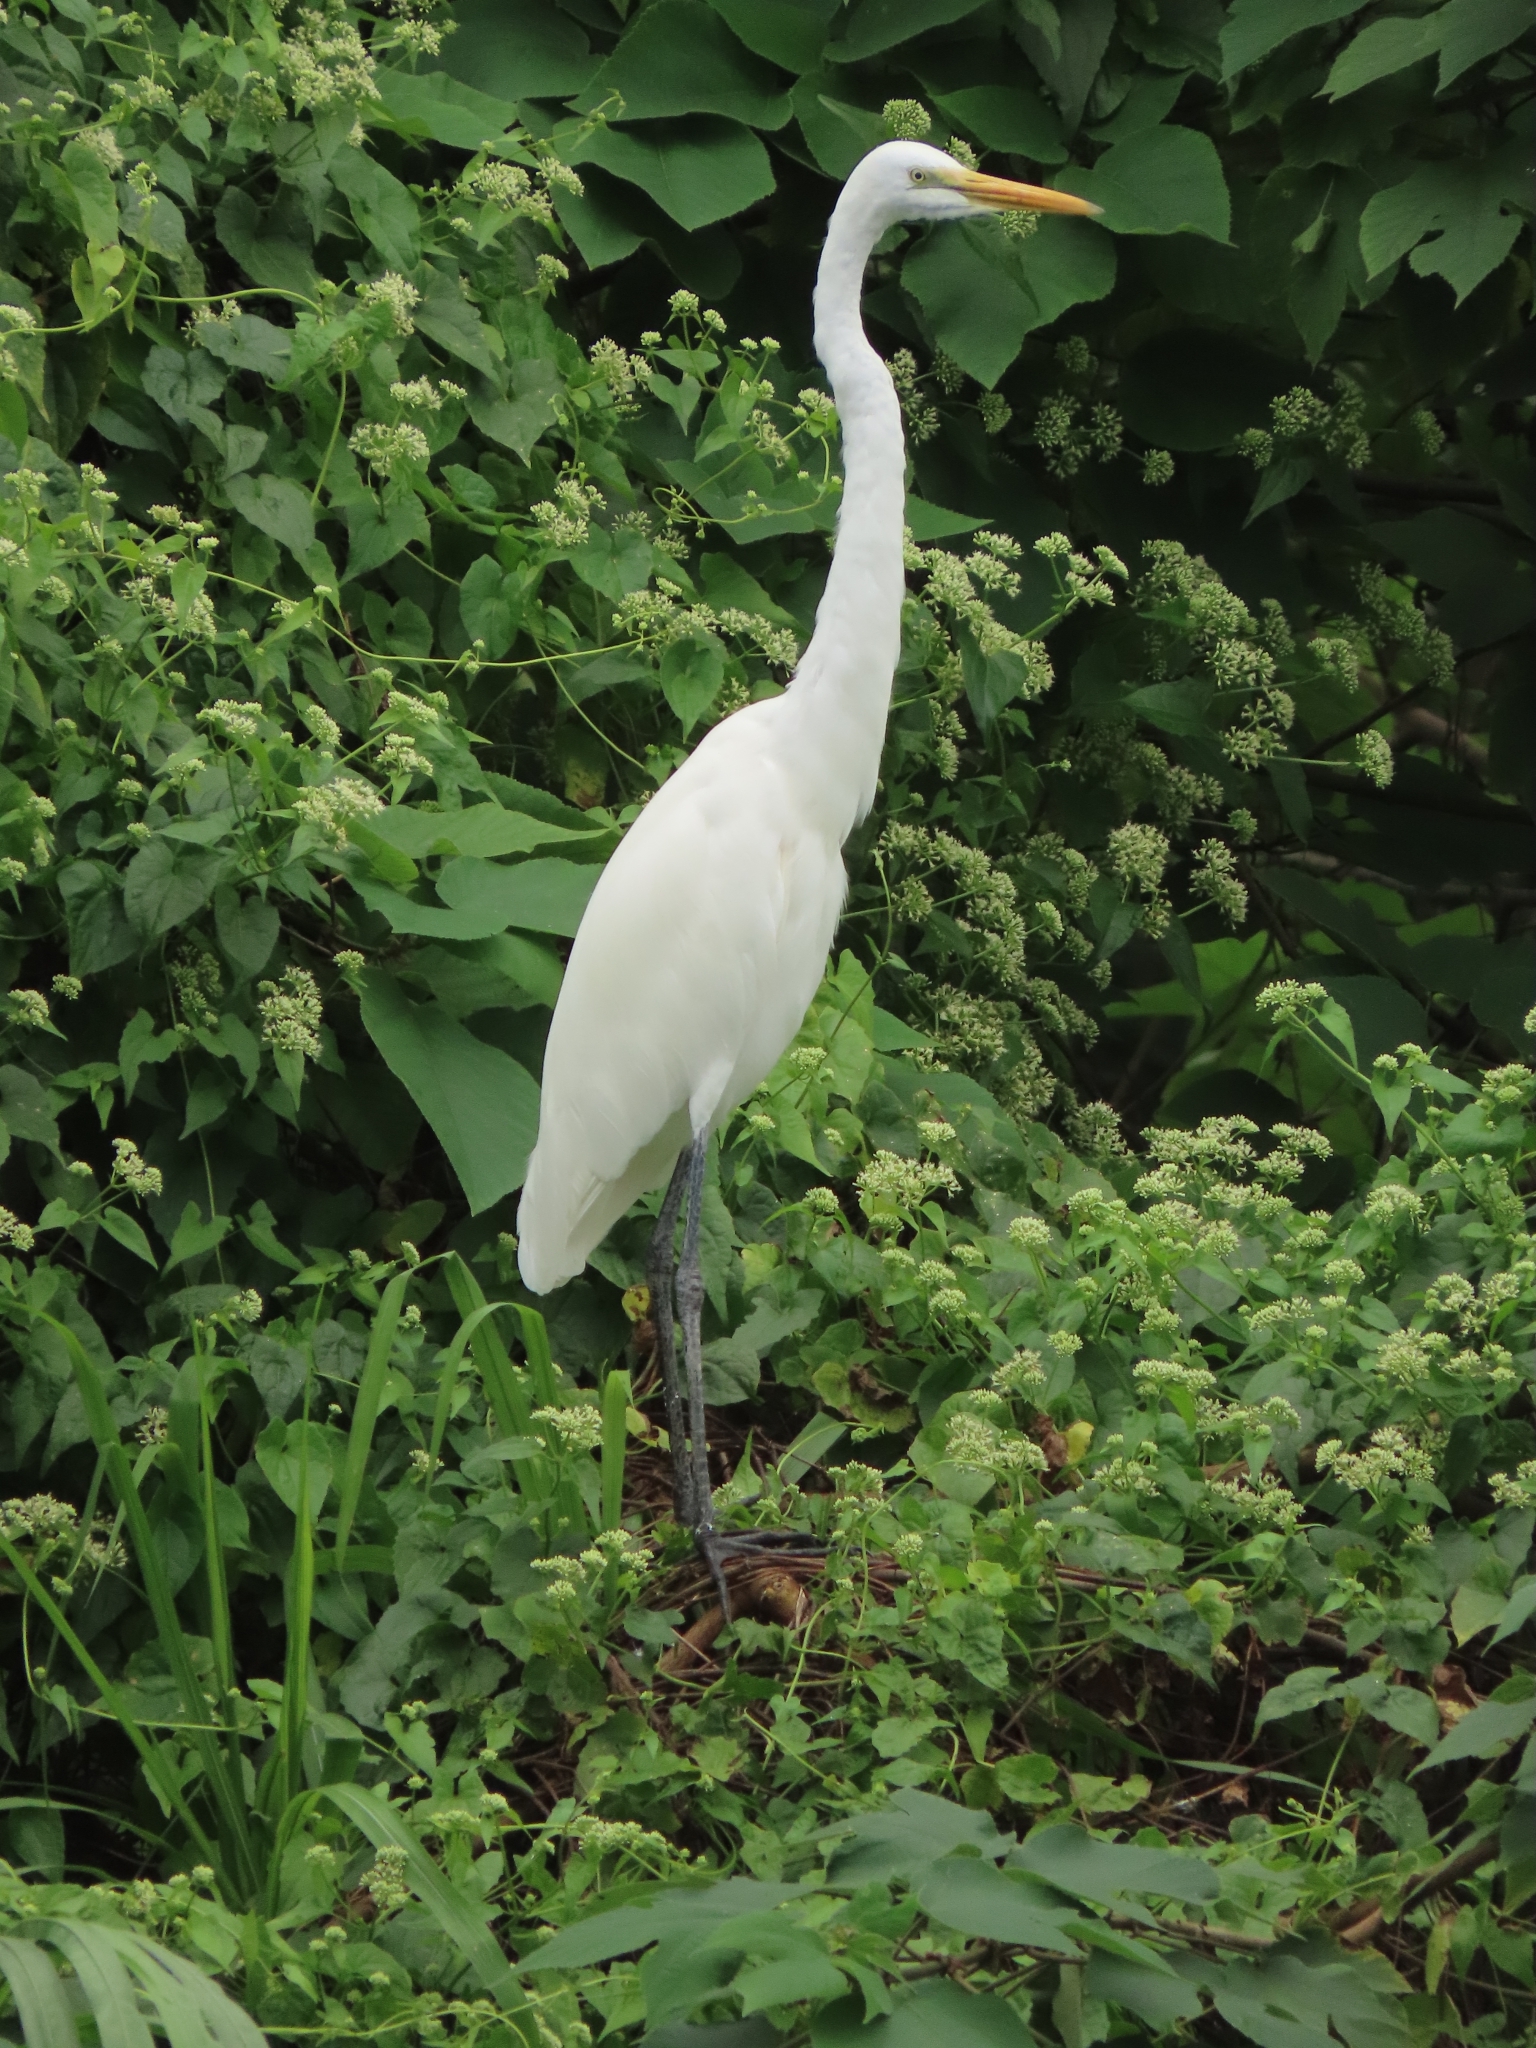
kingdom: Animalia
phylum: Chordata
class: Aves
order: Pelecaniformes
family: Ardeidae
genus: Ardea
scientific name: Ardea alba
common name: Great egret
